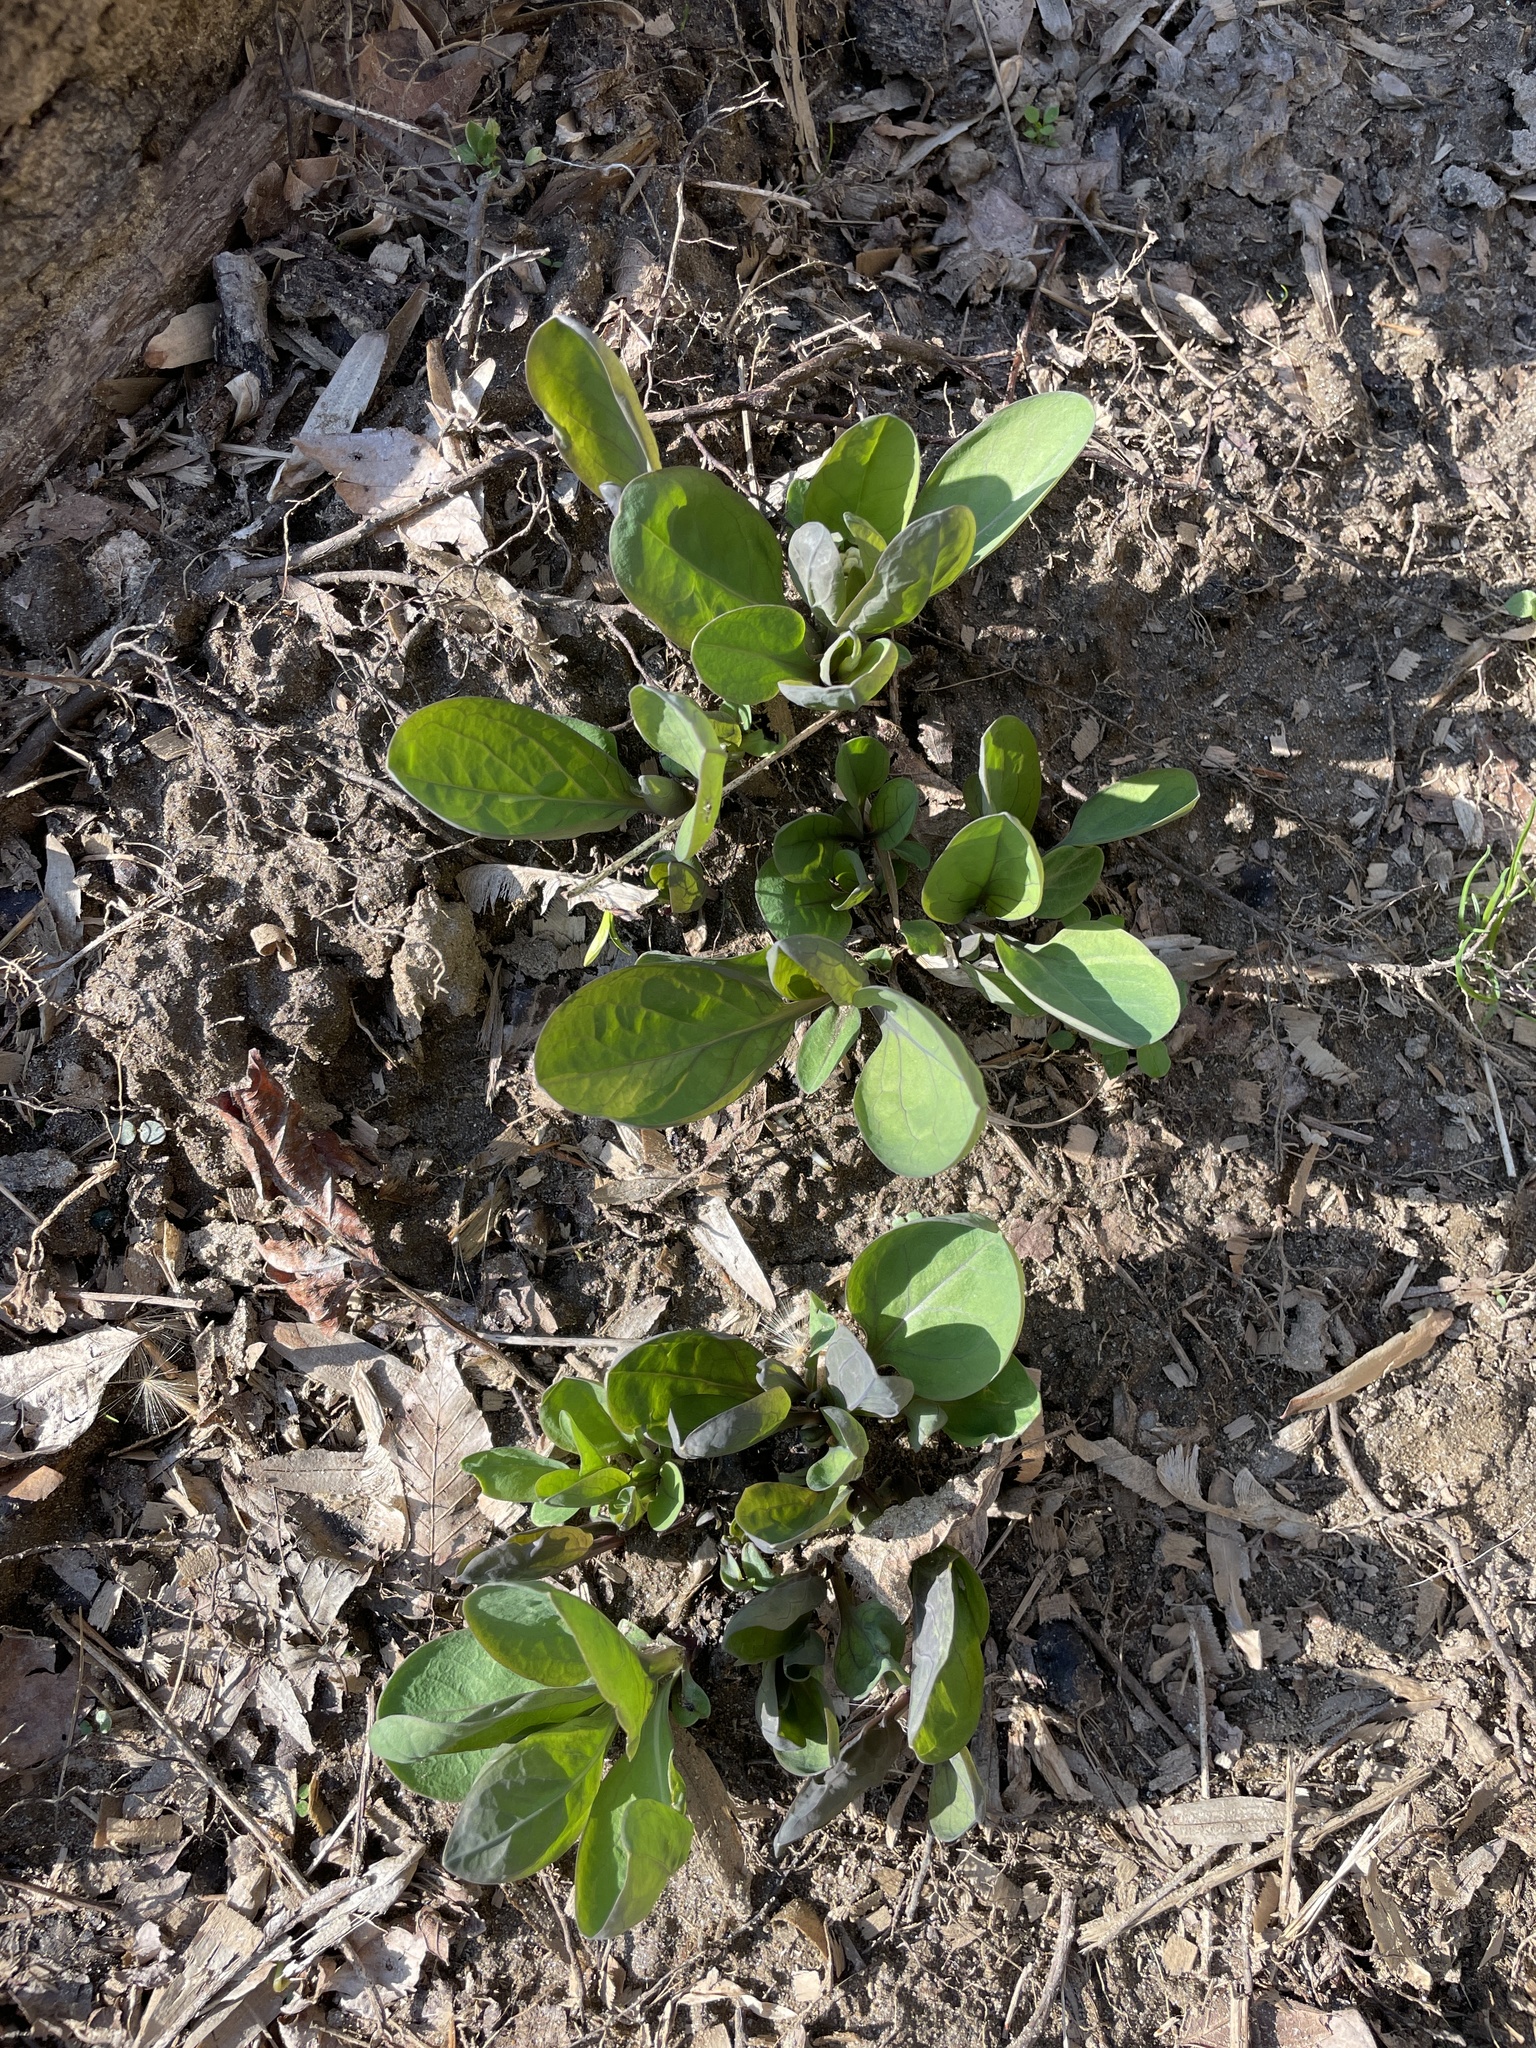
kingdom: Plantae
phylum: Tracheophyta
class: Magnoliopsida
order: Boraginales
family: Boraginaceae
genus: Mertensia
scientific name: Mertensia virginica
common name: Virginia bluebells
